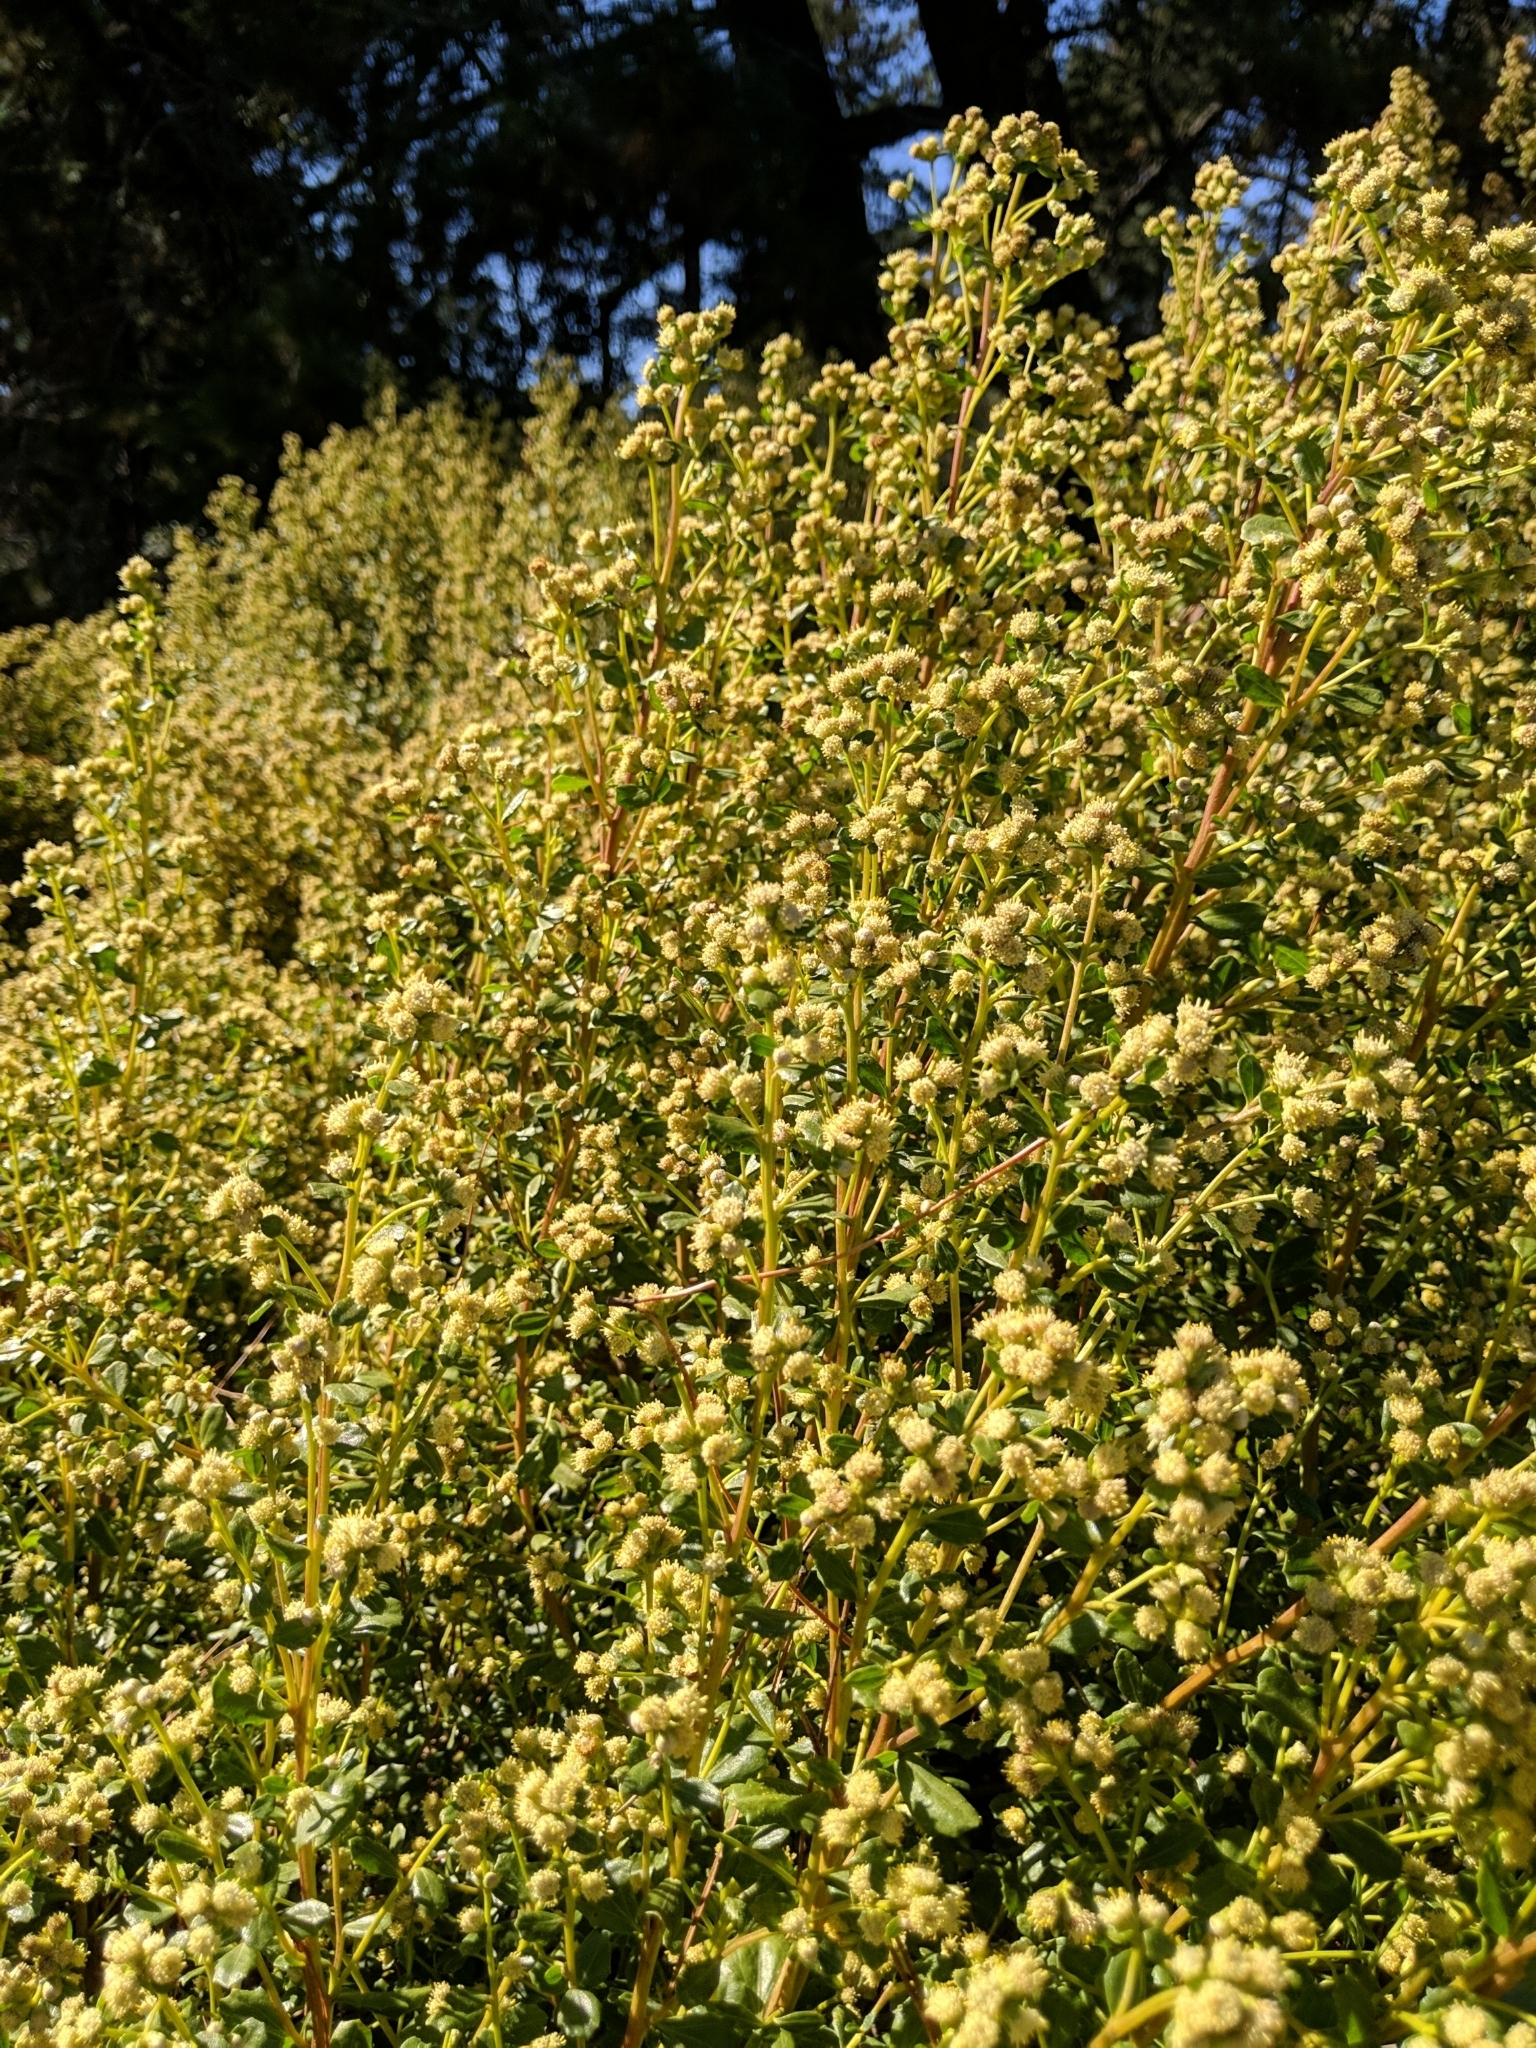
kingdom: Plantae
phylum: Tracheophyta
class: Magnoliopsida
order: Asterales
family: Asteraceae
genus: Baccharis
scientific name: Baccharis pilularis
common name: Coyotebrush
